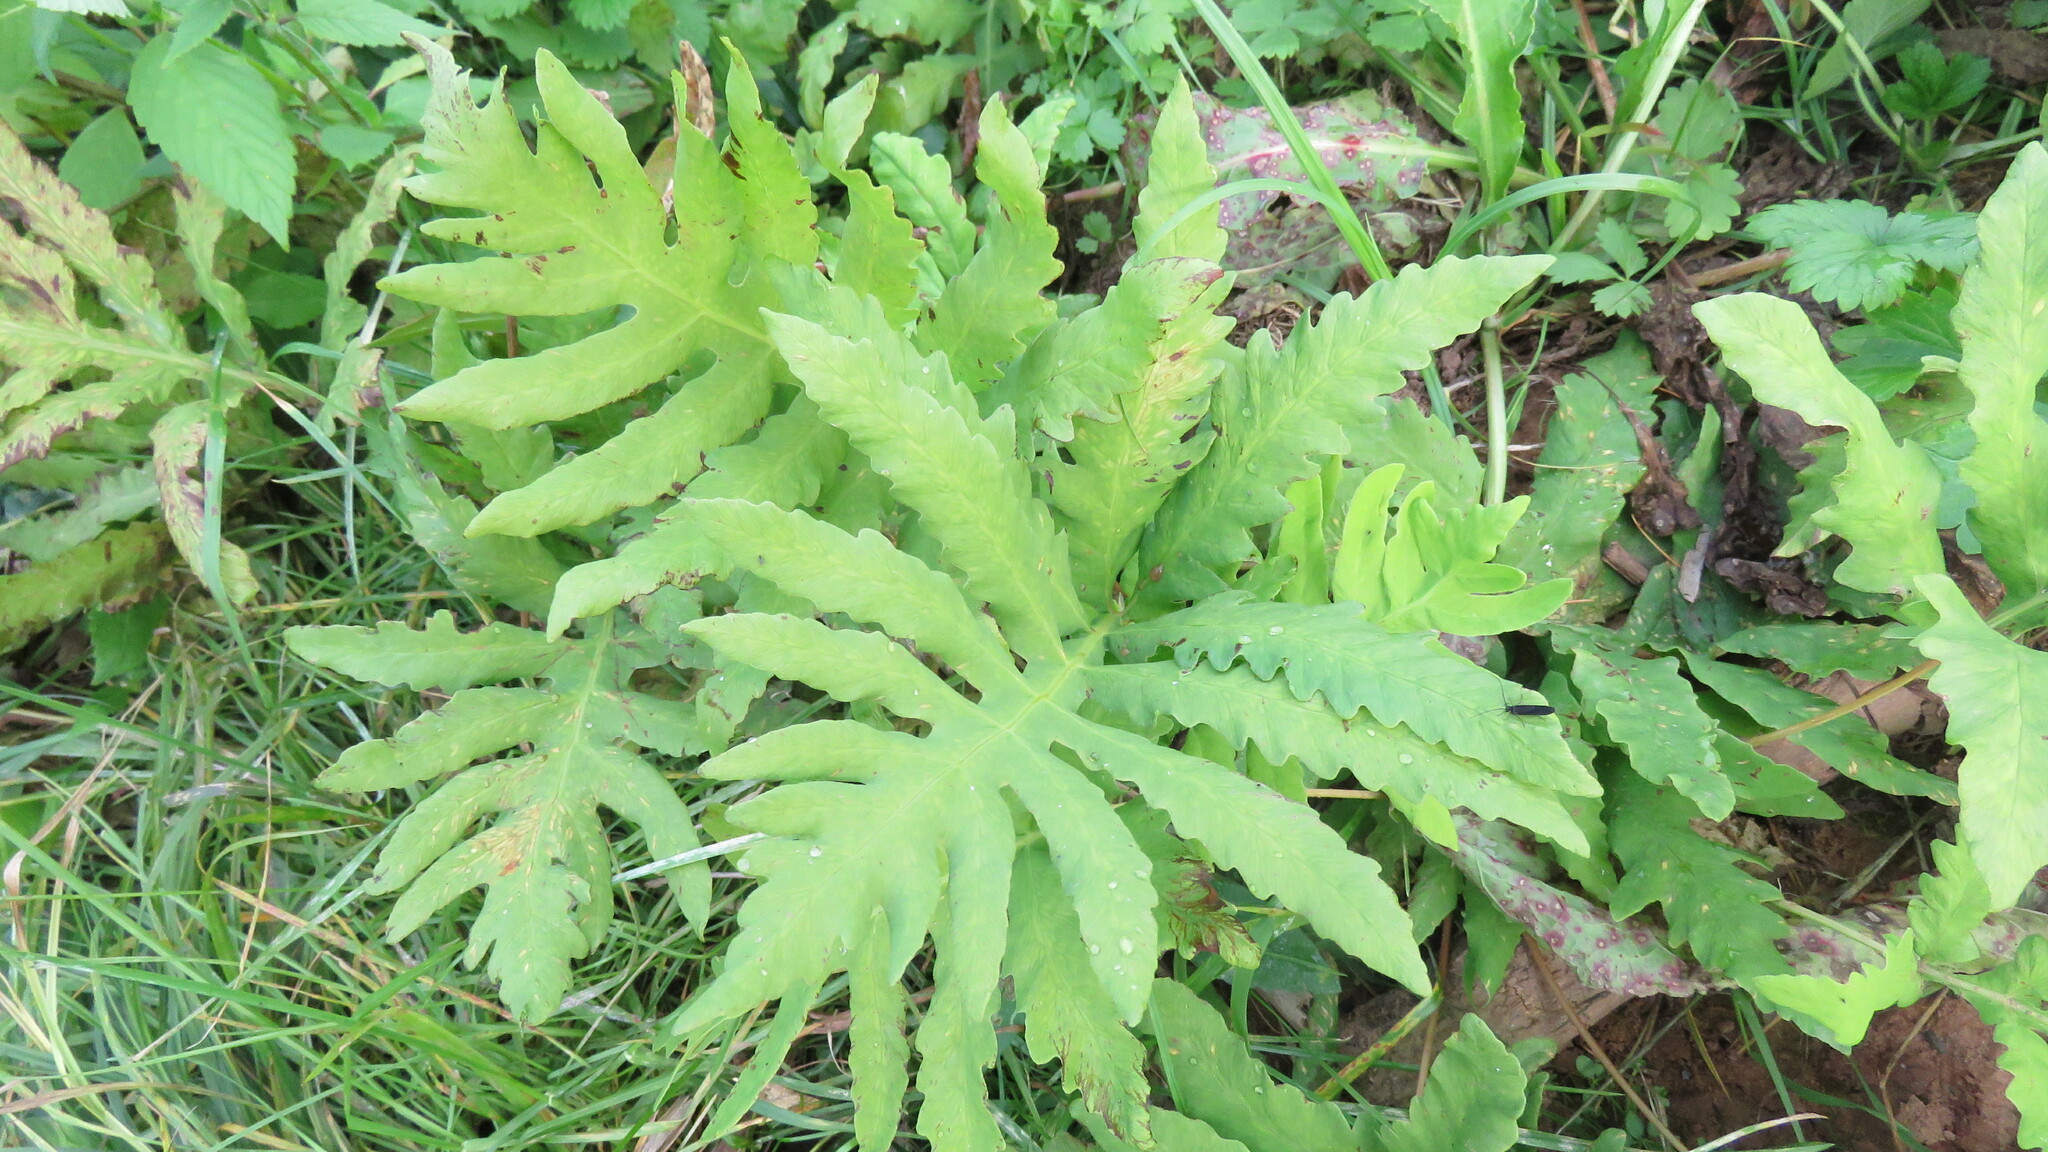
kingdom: Plantae
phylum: Tracheophyta
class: Polypodiopsida
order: Polypodiales
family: Onocleaceae
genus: Onoclea
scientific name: Onoclea sensibilis
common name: Sensitive fern
